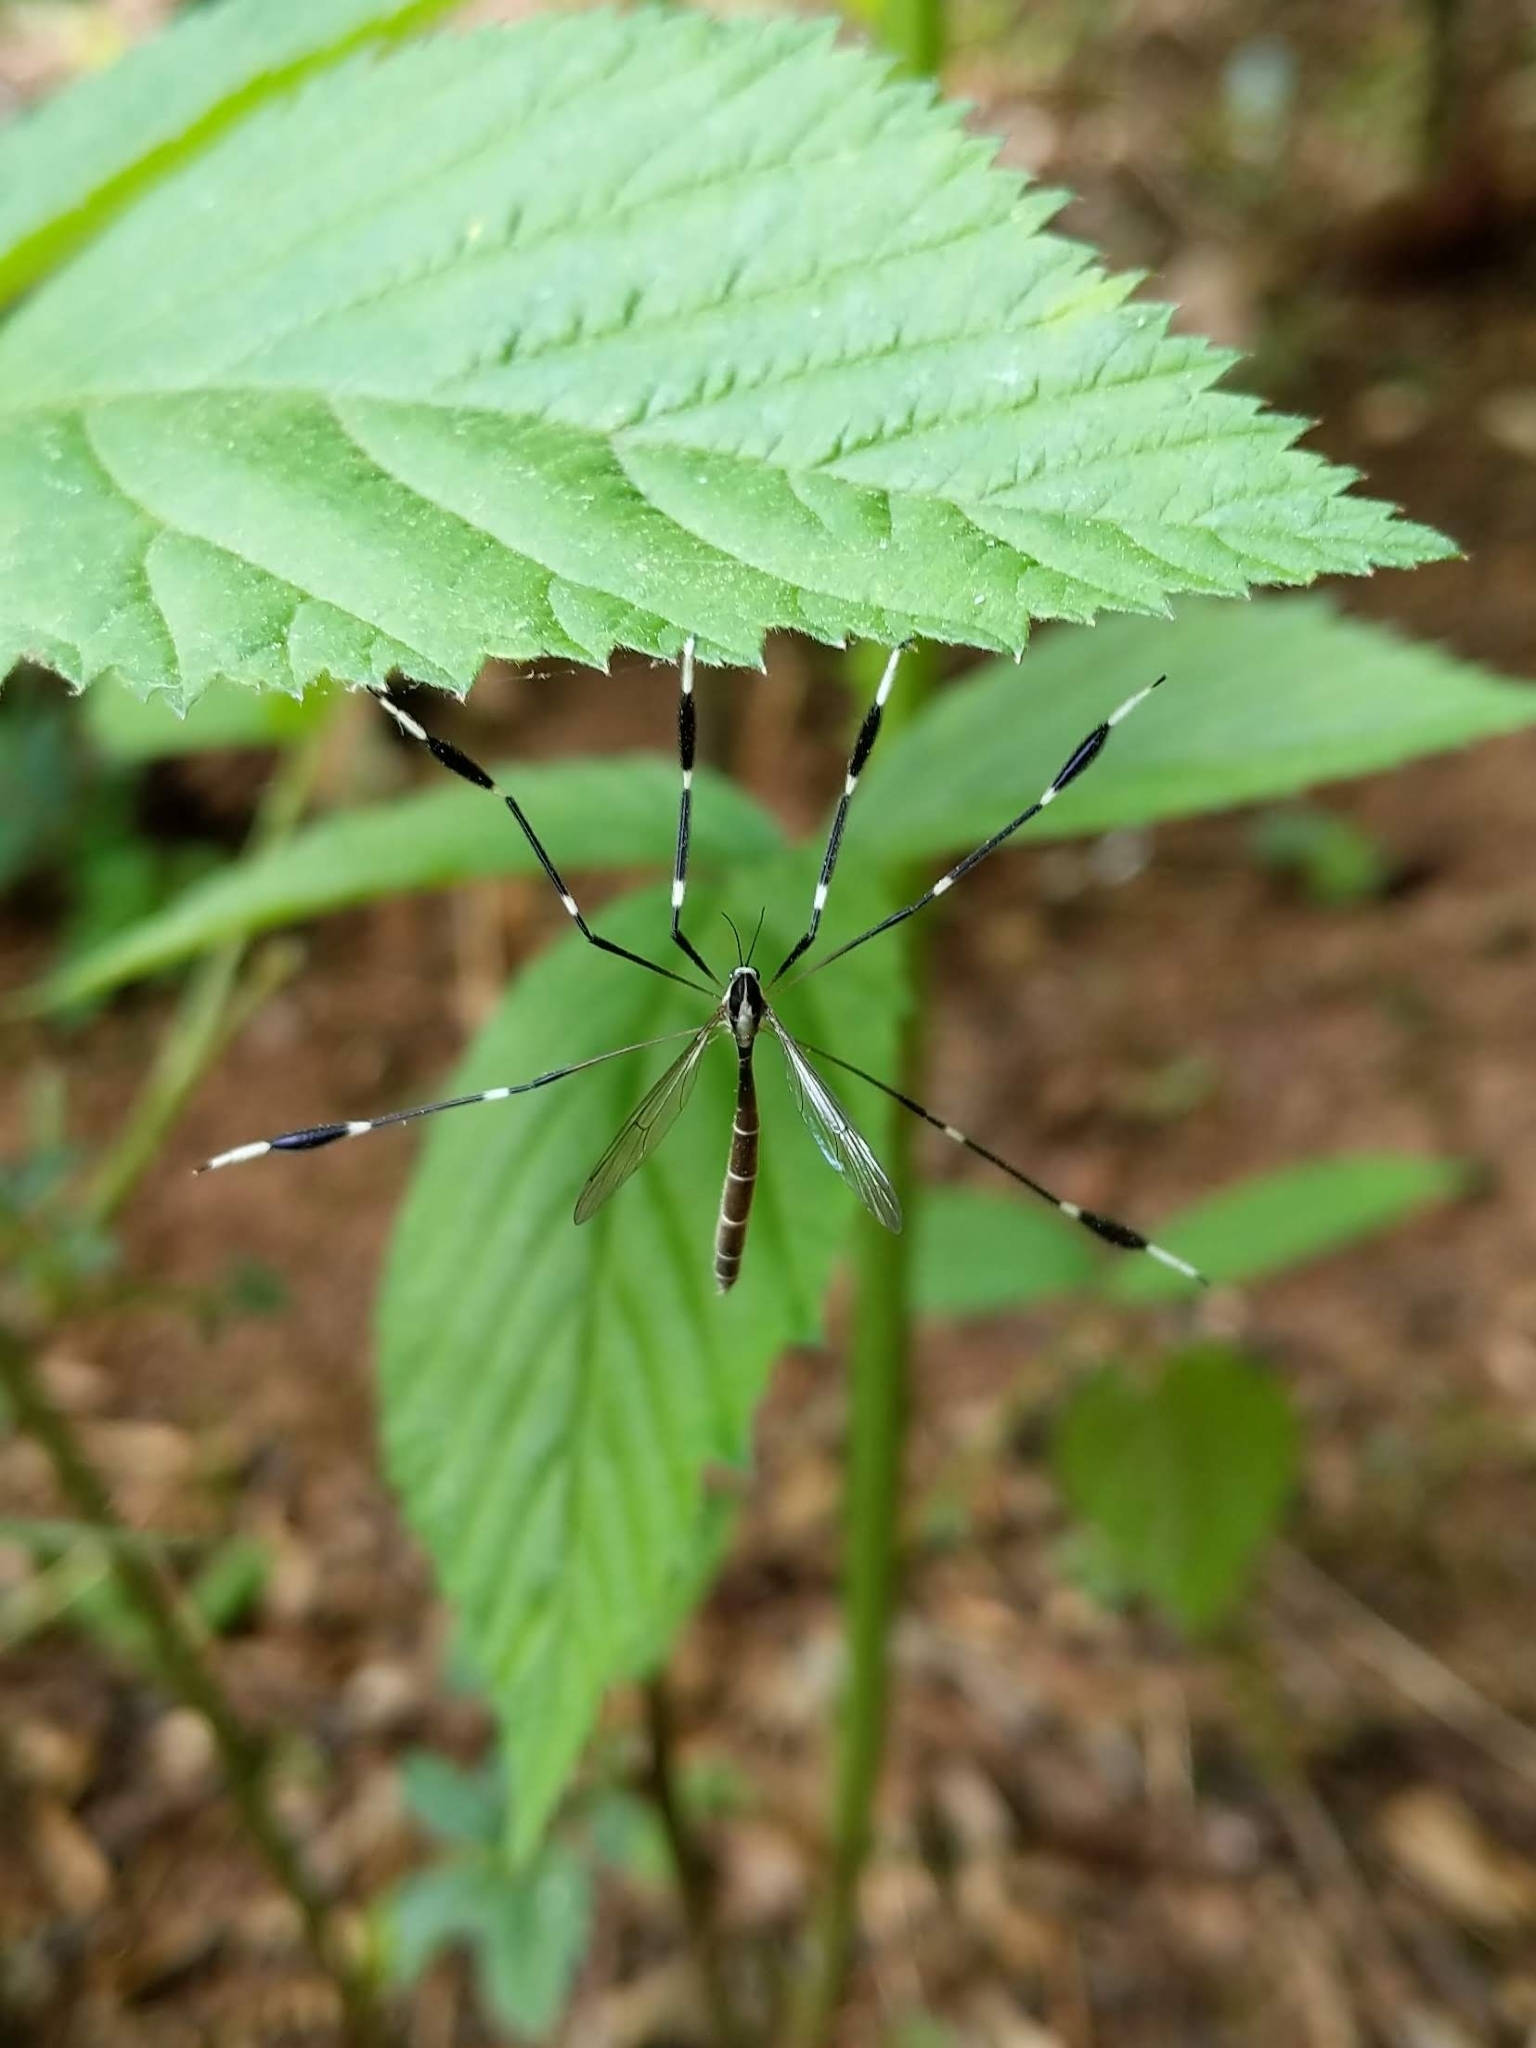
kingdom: Animalia
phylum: Arthropoda
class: Insecta
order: Diptera
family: Ptychopteridae
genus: Bittacomorpha
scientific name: Bittacomorpha clavipes
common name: Eastern phantom crane fly
